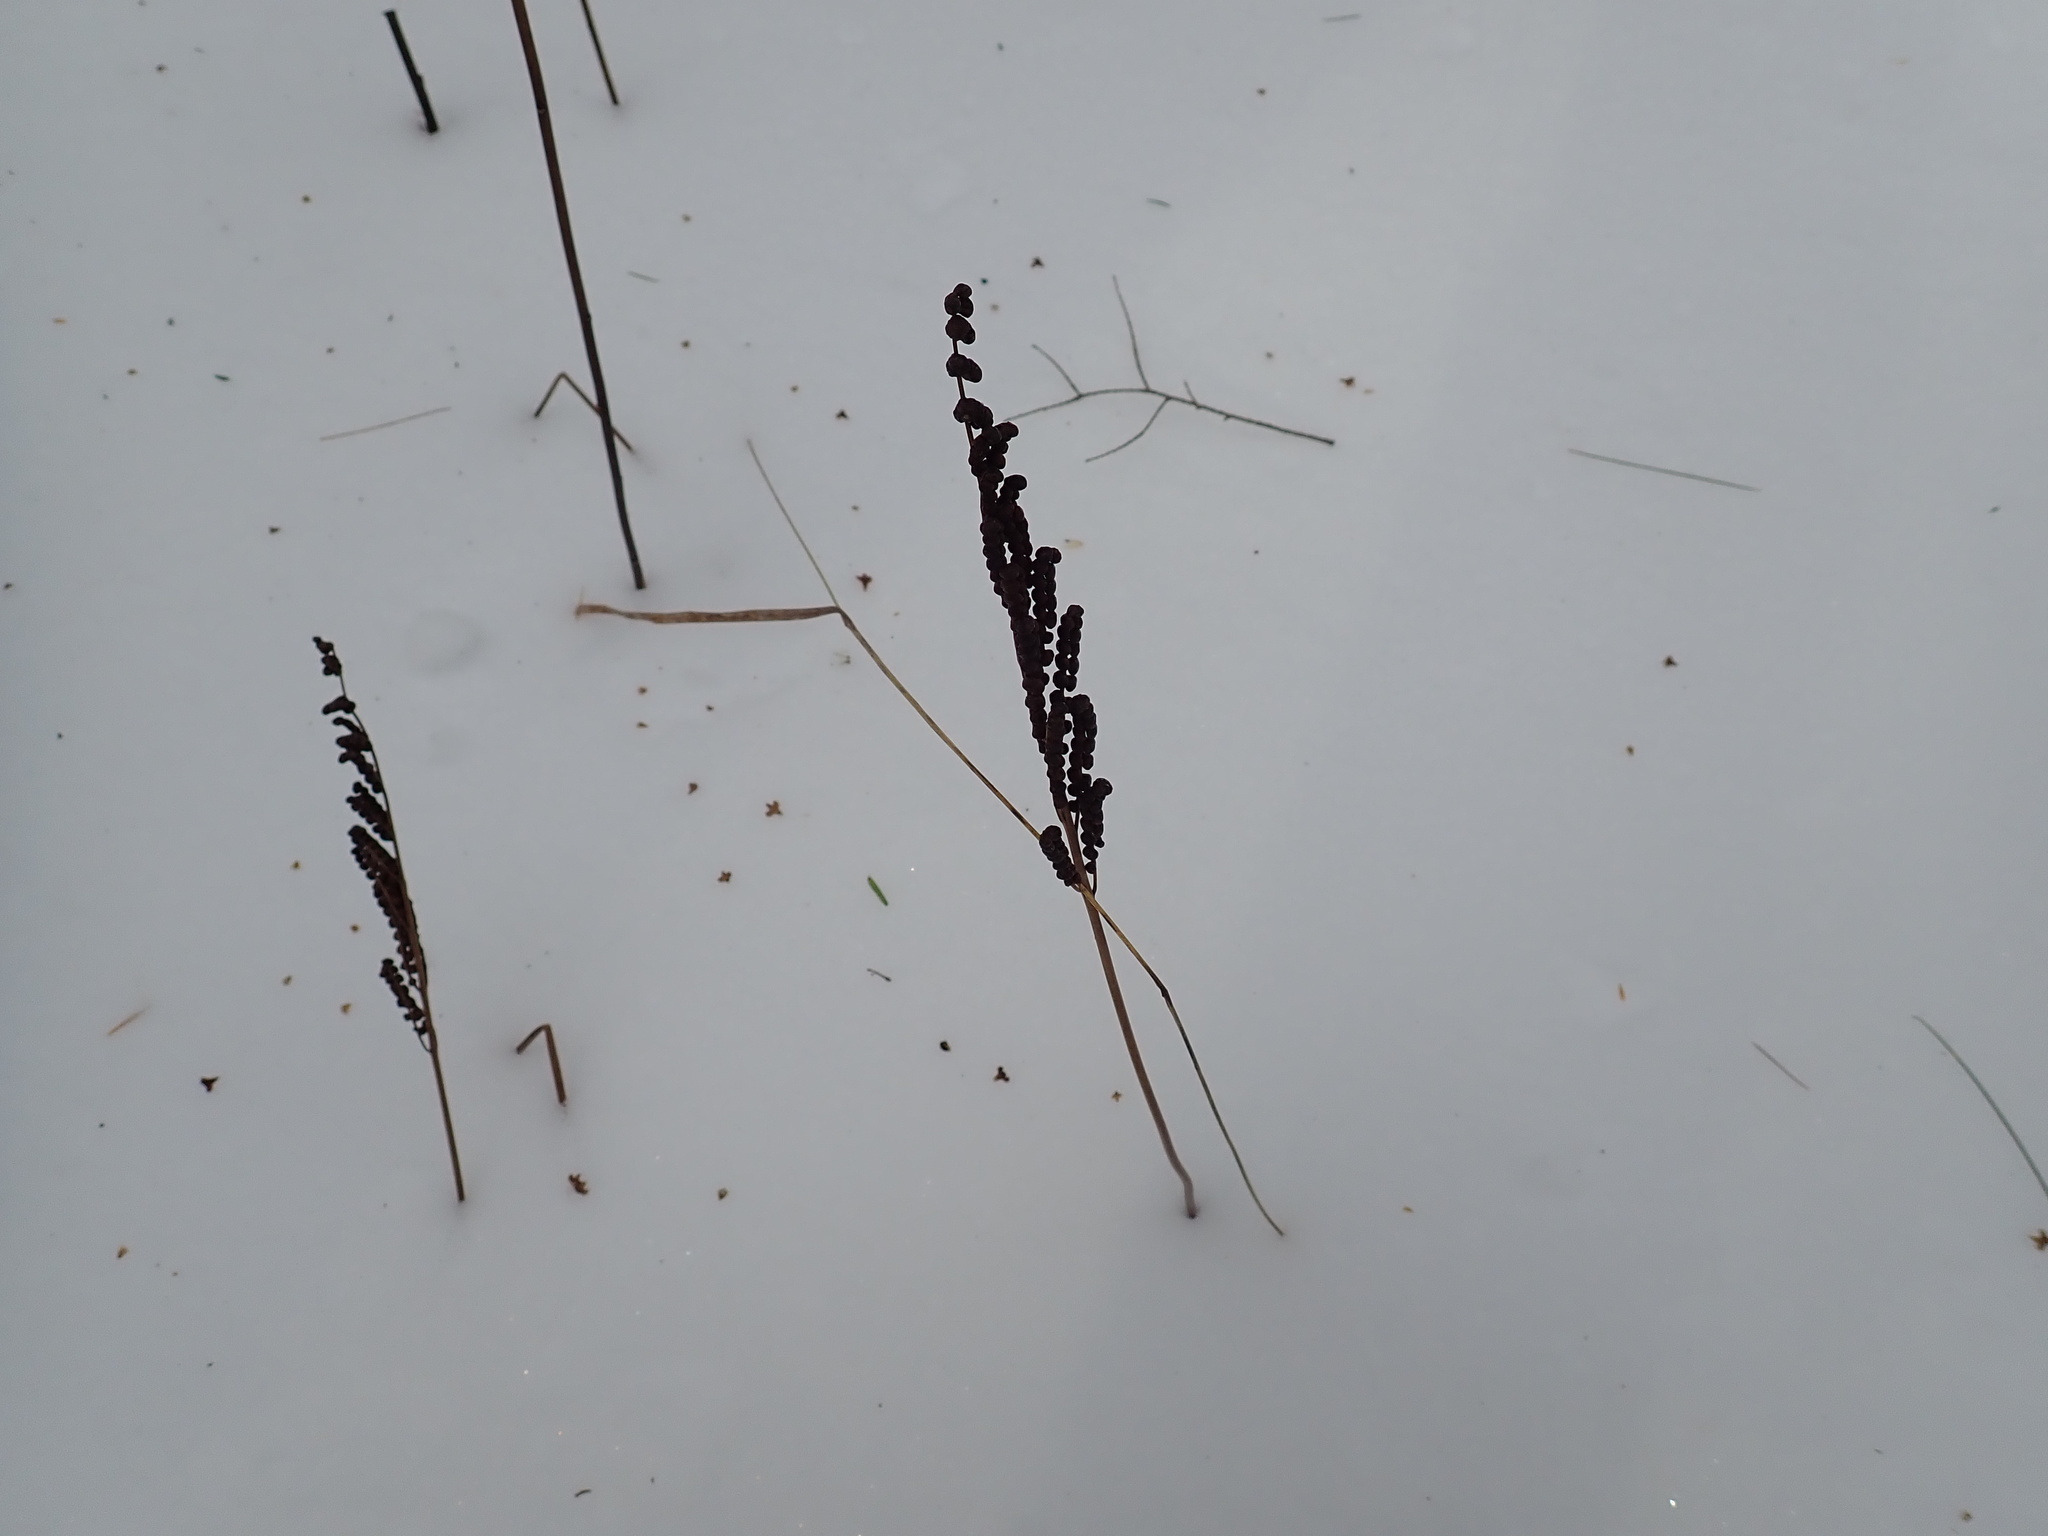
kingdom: Plantae
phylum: Tracheophyta
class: Polypodiopsida
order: Polypodiales
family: Onocleaceae
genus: Onoclea
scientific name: Onoclea sensibilis
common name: Sensitive fern
